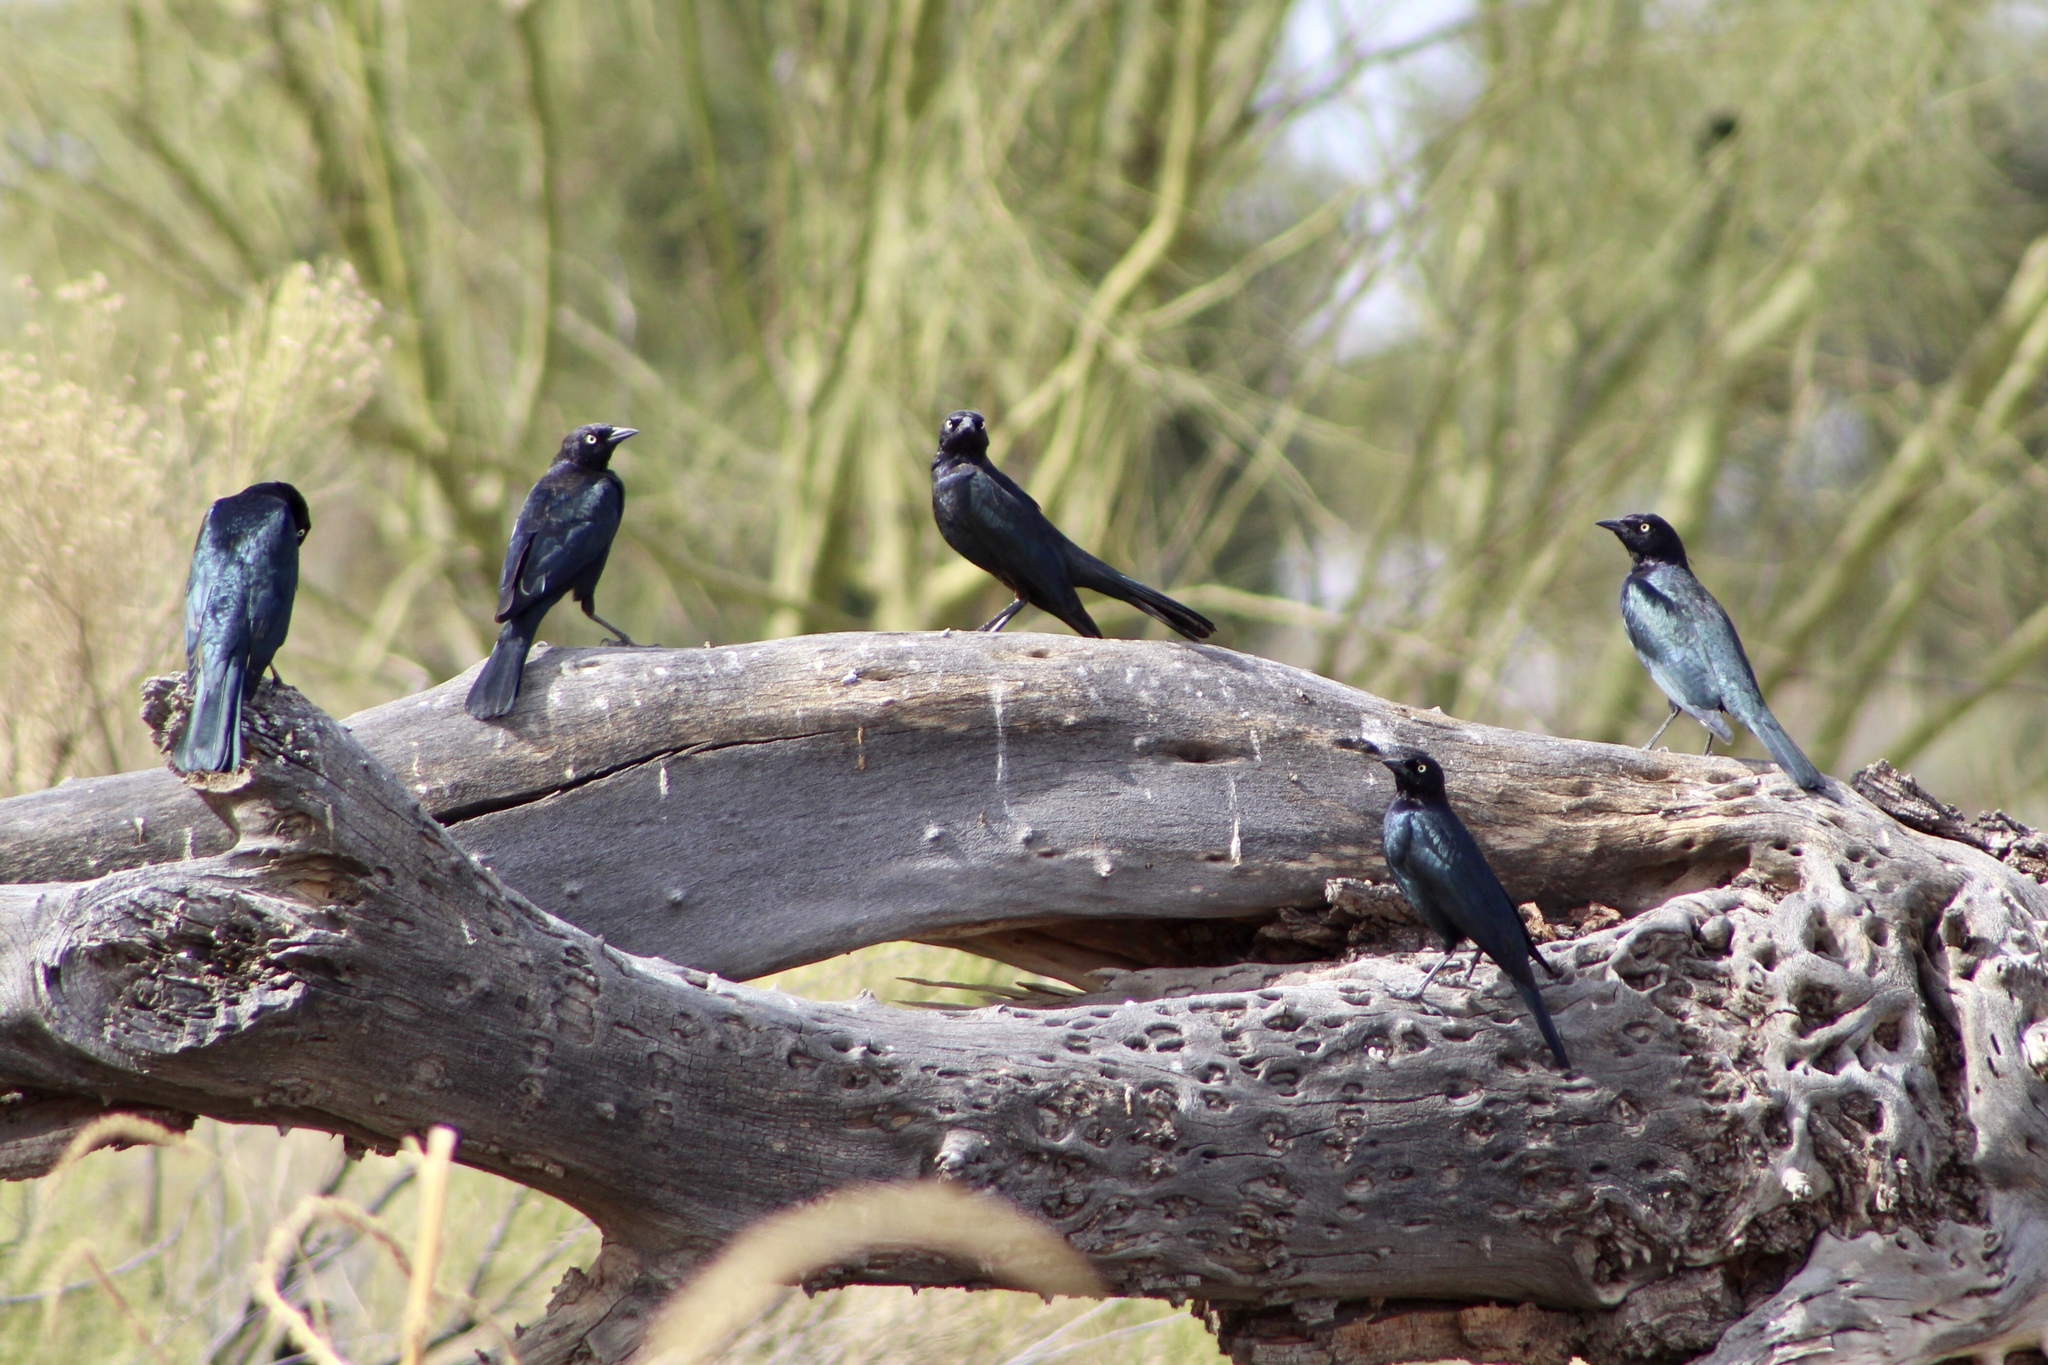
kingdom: Animalia
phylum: Chordata
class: Aves
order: Passeriformes
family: Icteridae
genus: Euphagus
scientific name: Euphagus cyanocephalus
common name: Brewer's blackbird
